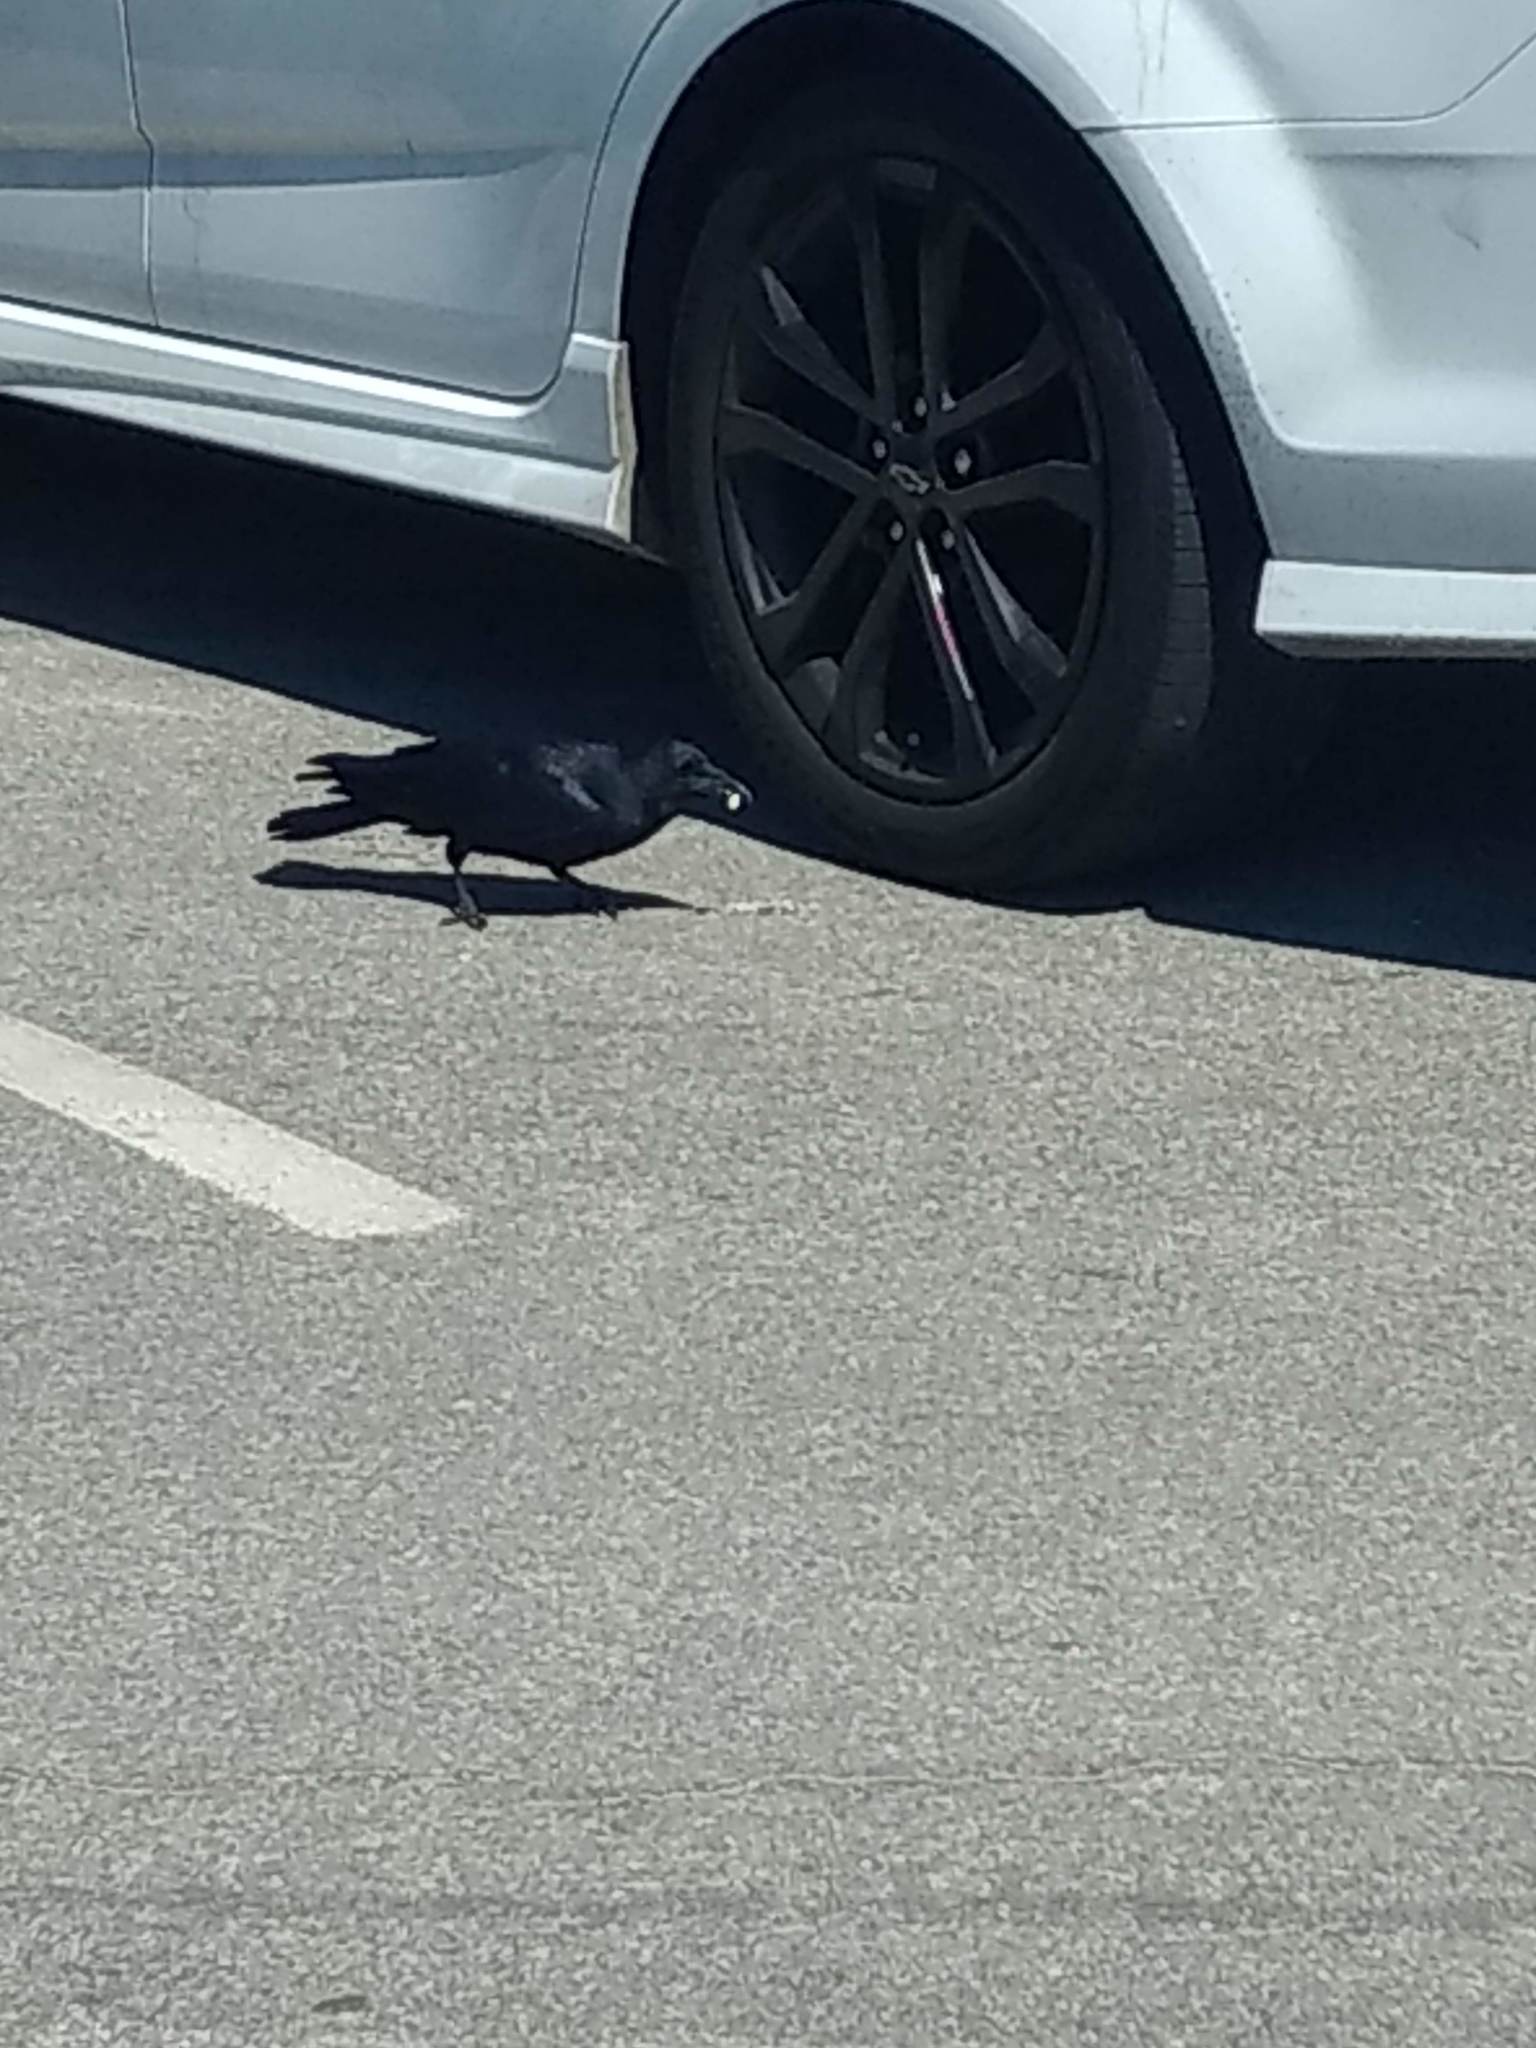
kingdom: Animalia
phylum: Chordata
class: Aves
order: Passeriformes
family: Corvidae
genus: Corvus
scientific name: Corvus brachyrhynchos
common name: American crow
